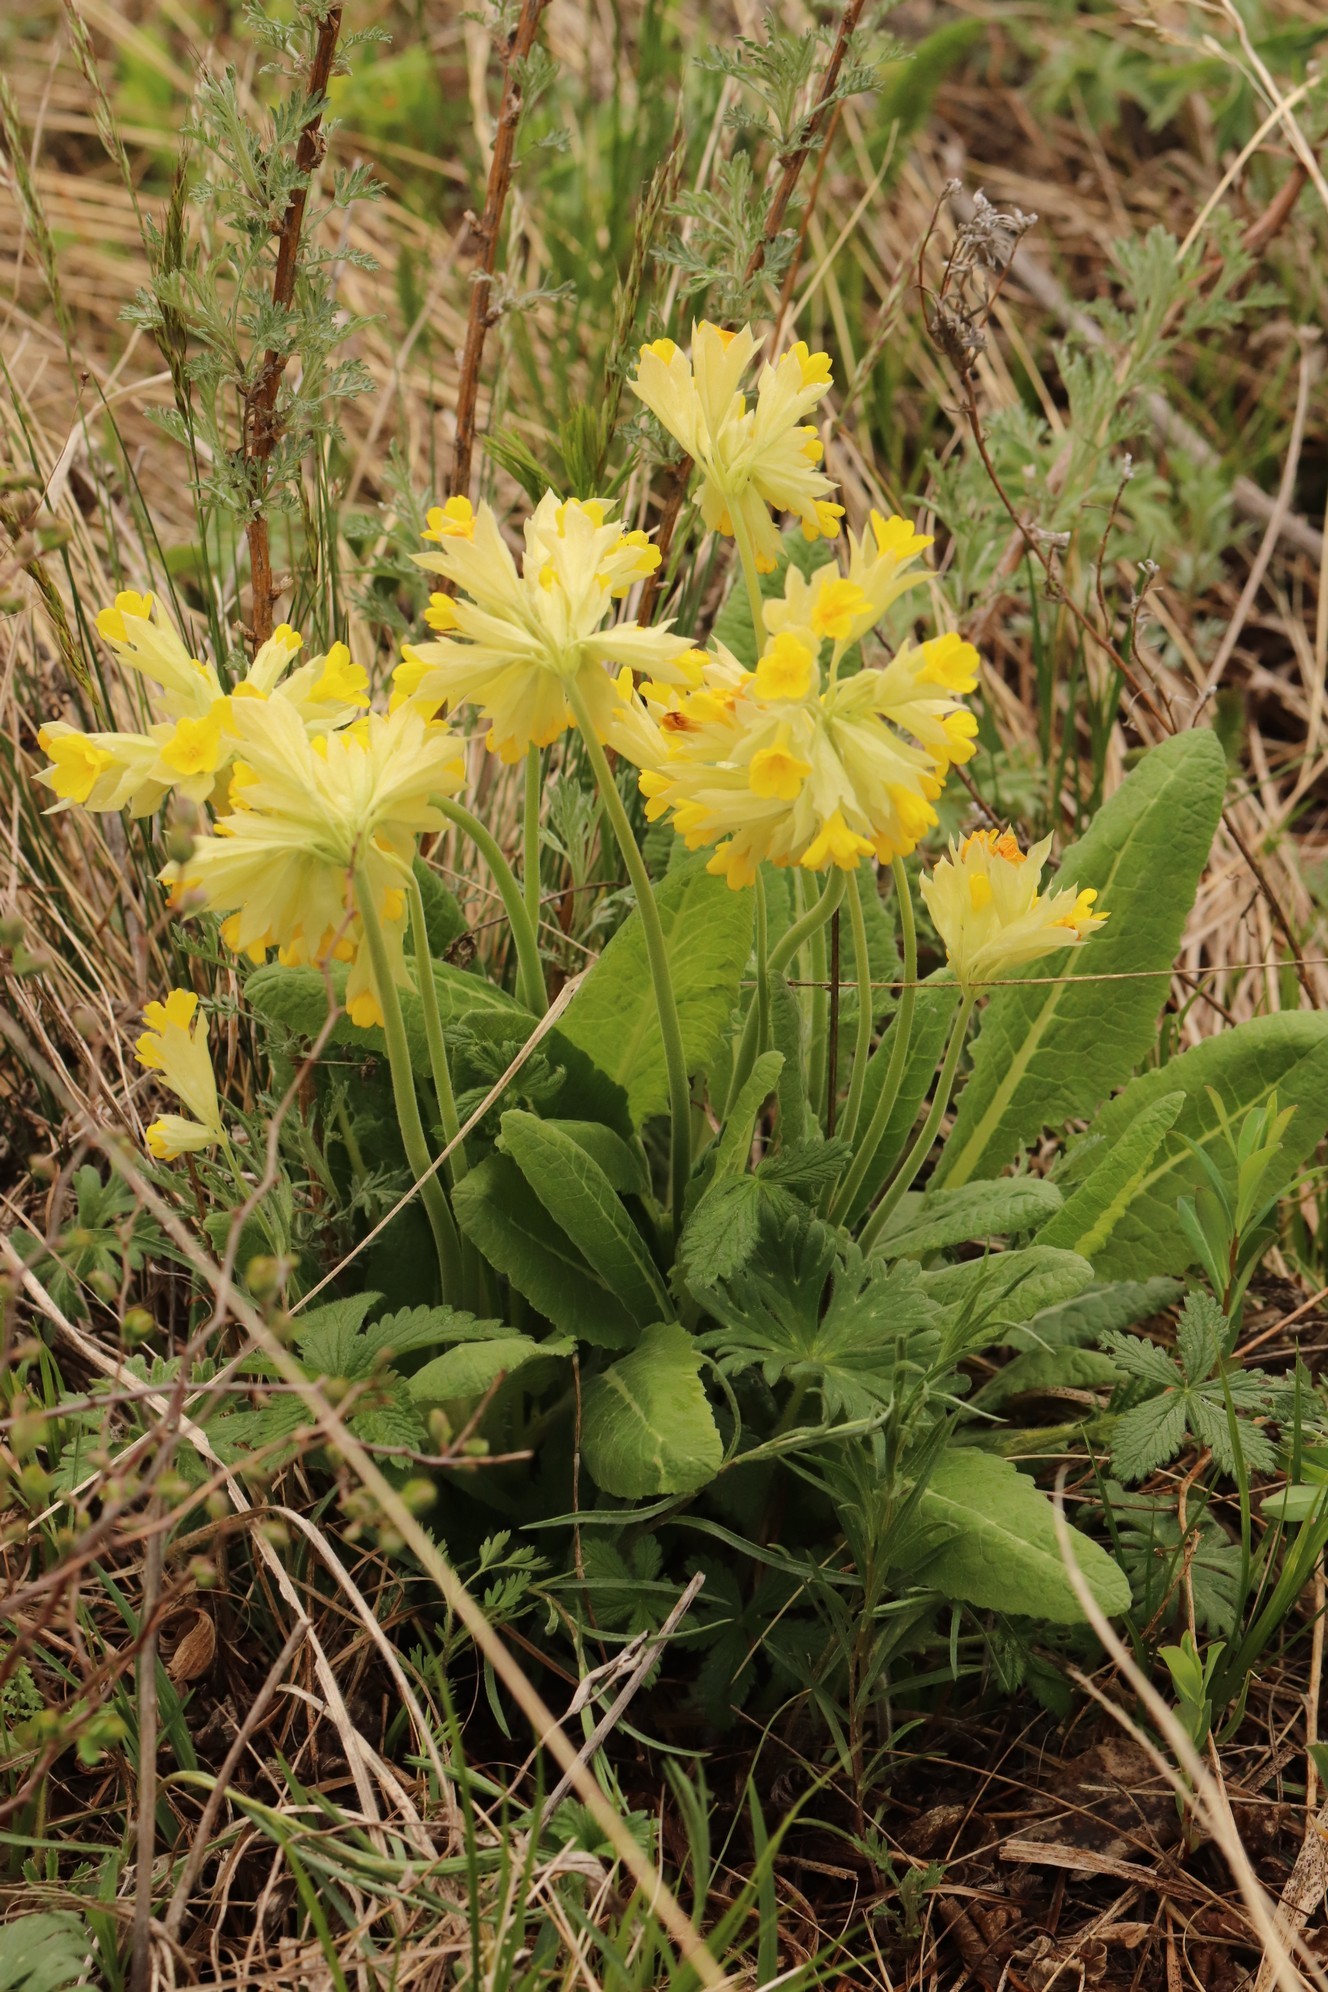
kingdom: Plantae
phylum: Tracheophyta
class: Magnoliopsida
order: Ericales
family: Primulaceae
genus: Primula
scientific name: Primula veris
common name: Cowslip
